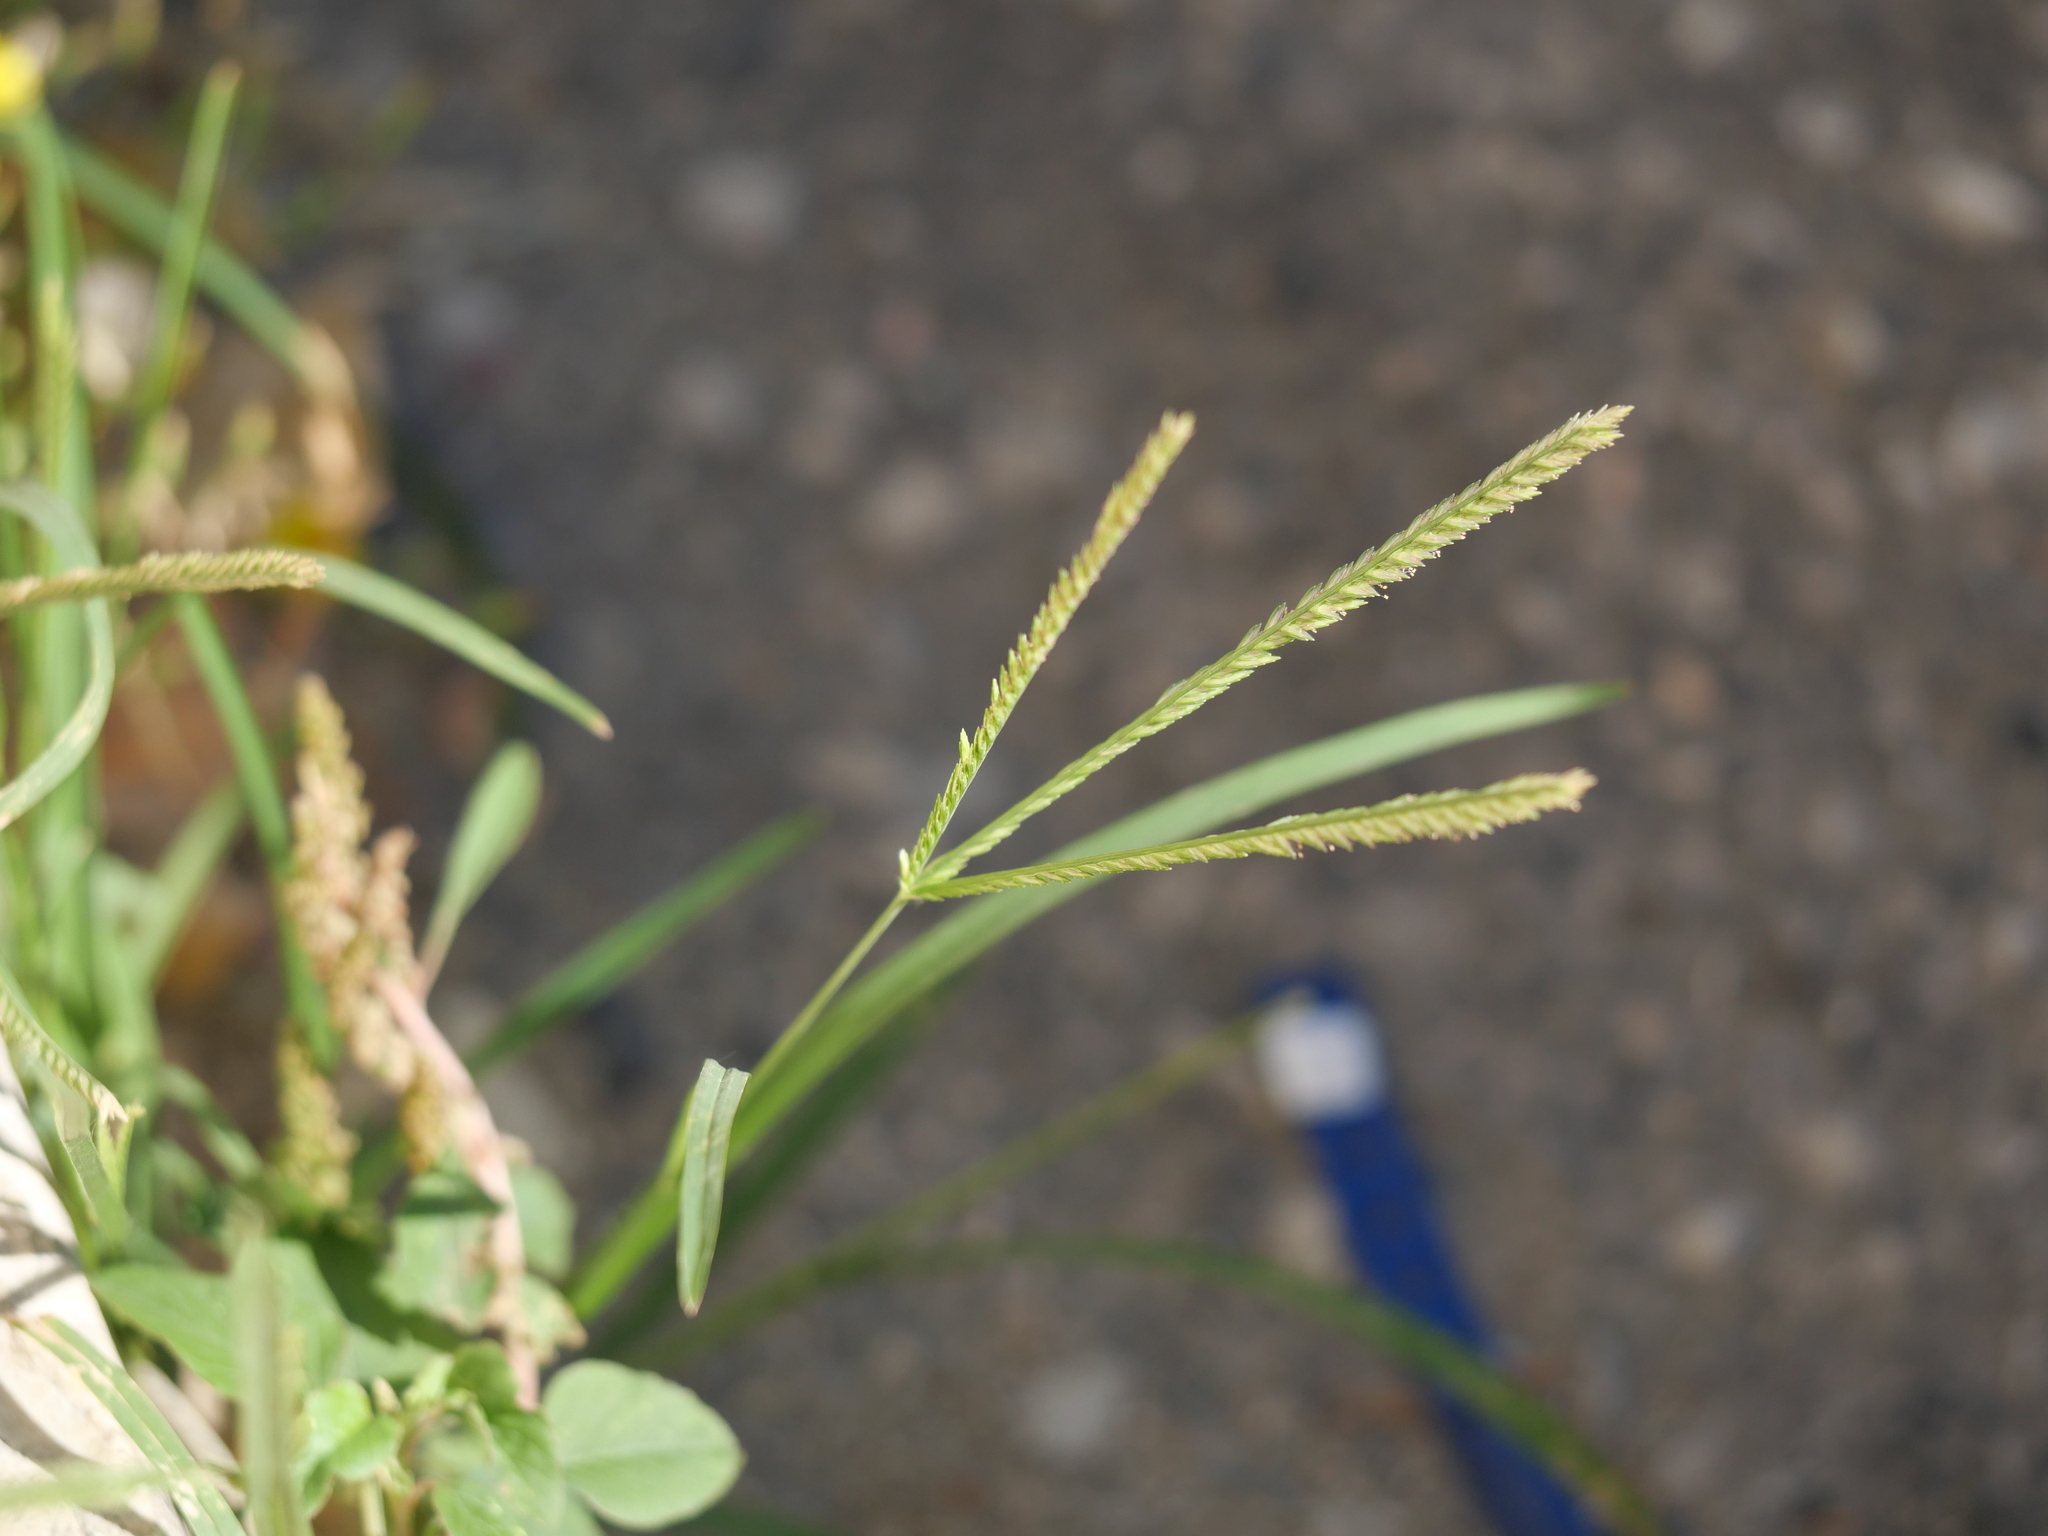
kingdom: Plantae
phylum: Tracheophyta
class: Liliopsida
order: Poales
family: Poaceae
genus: Eleusine
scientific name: Eleusine indica
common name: Yard-grass
